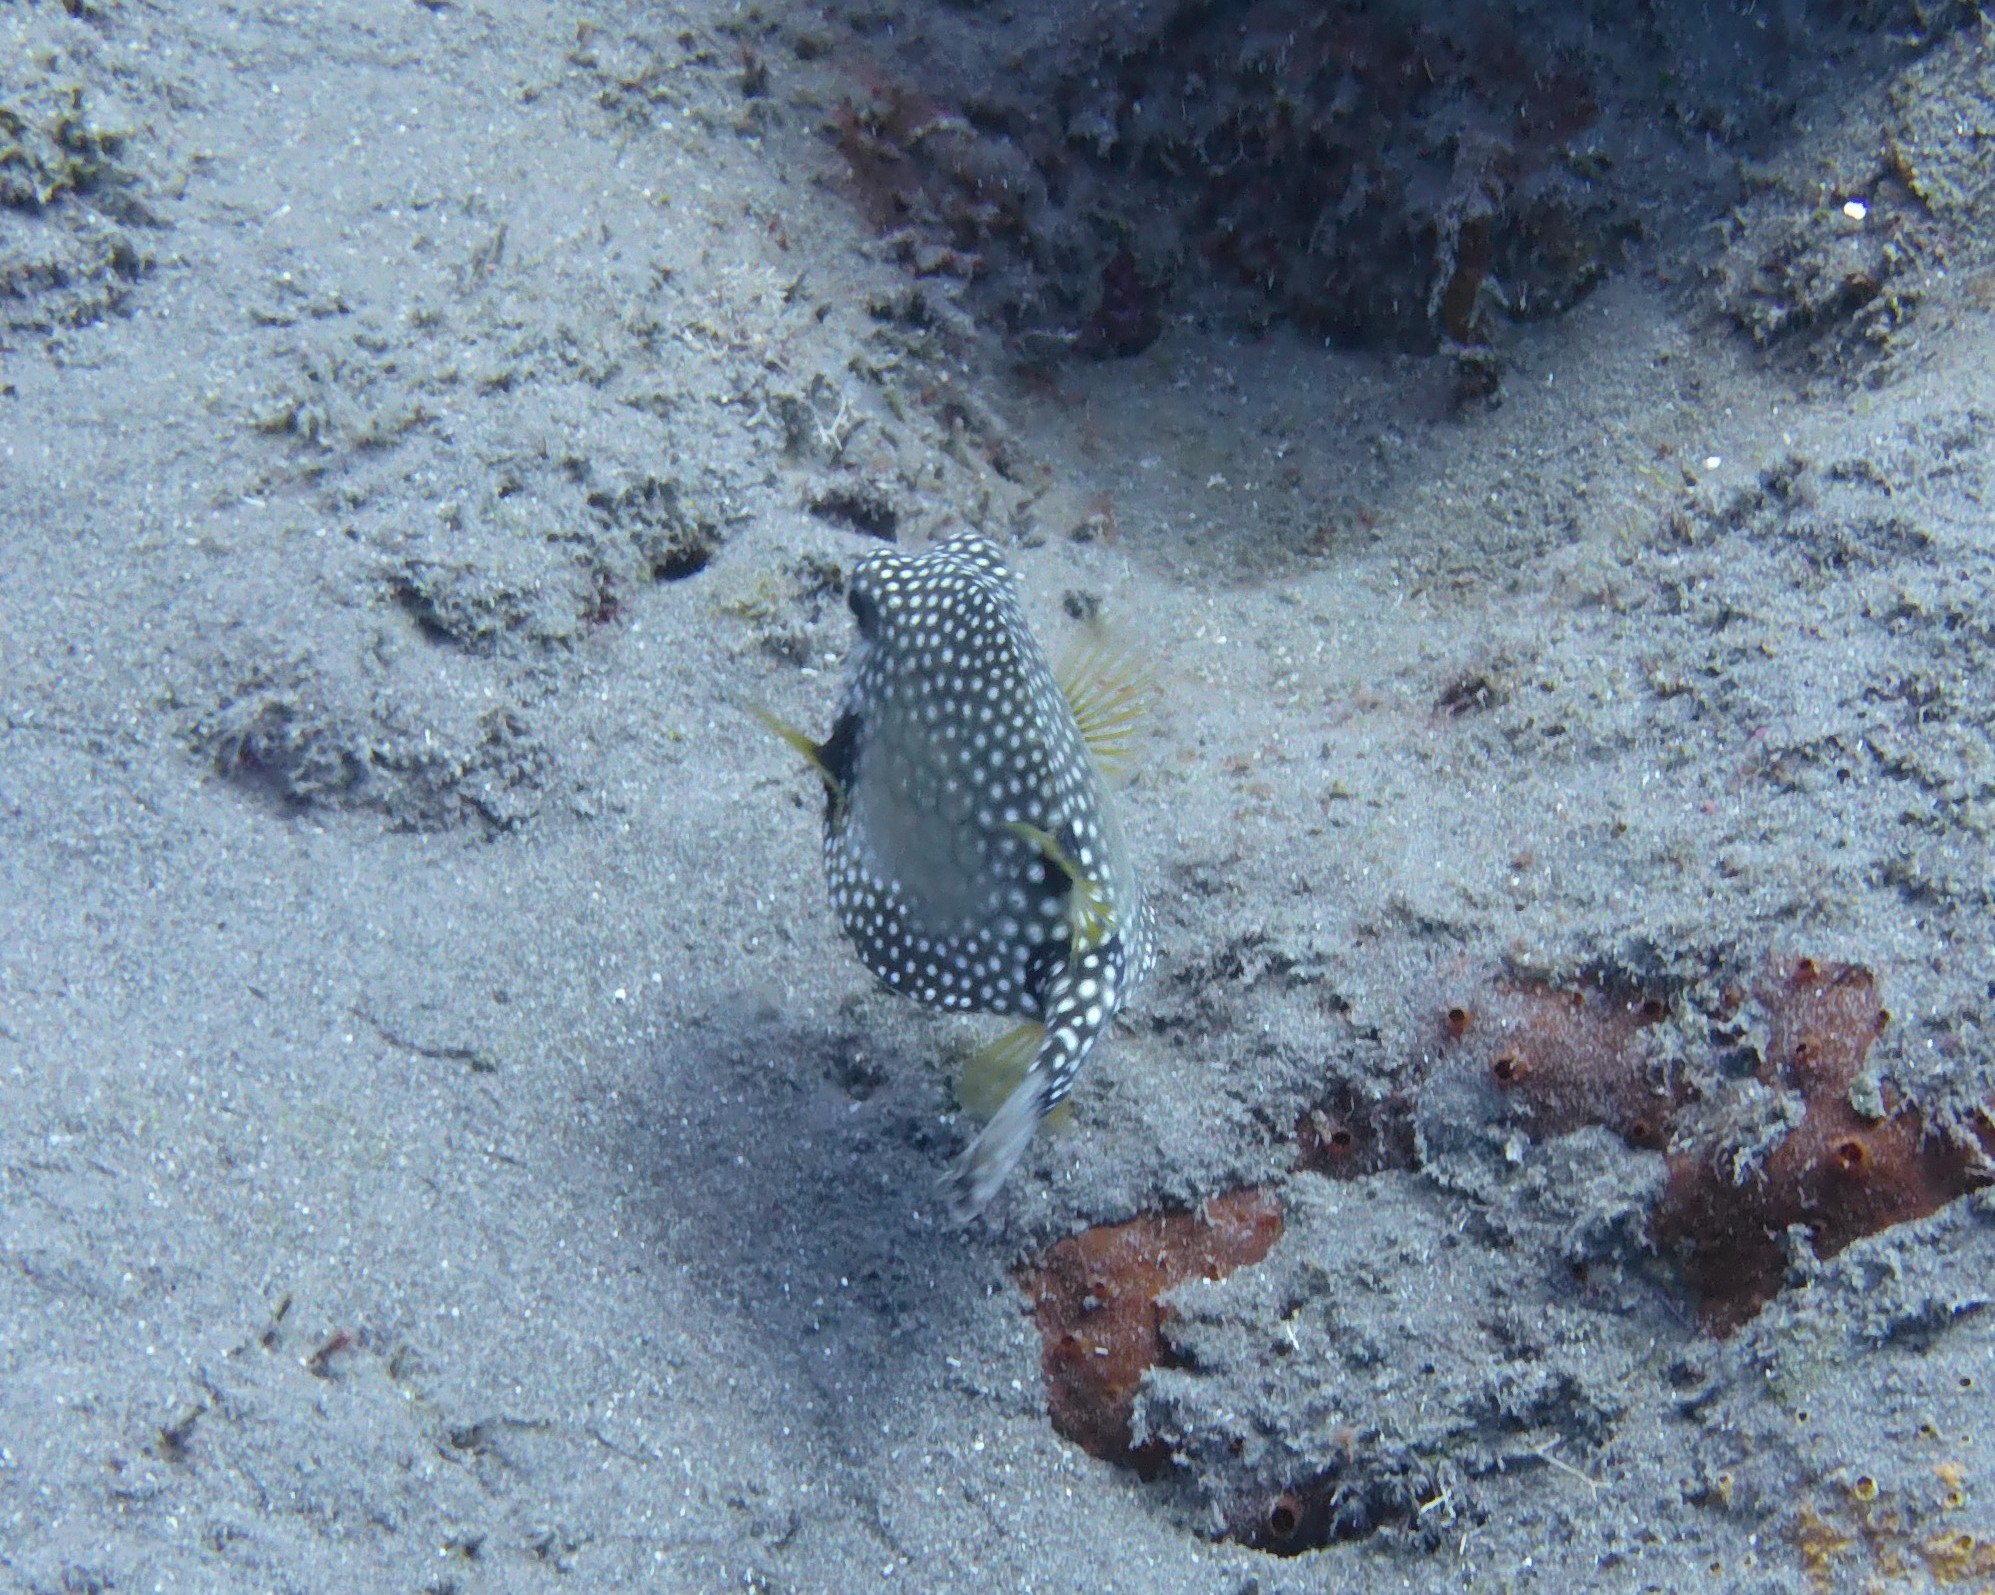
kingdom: Animalia
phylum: Chordata
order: Tetraodontiformes
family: Ostraciidae
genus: Lactophrys
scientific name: Lactophrys triqueter
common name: Smooth trunkfish
